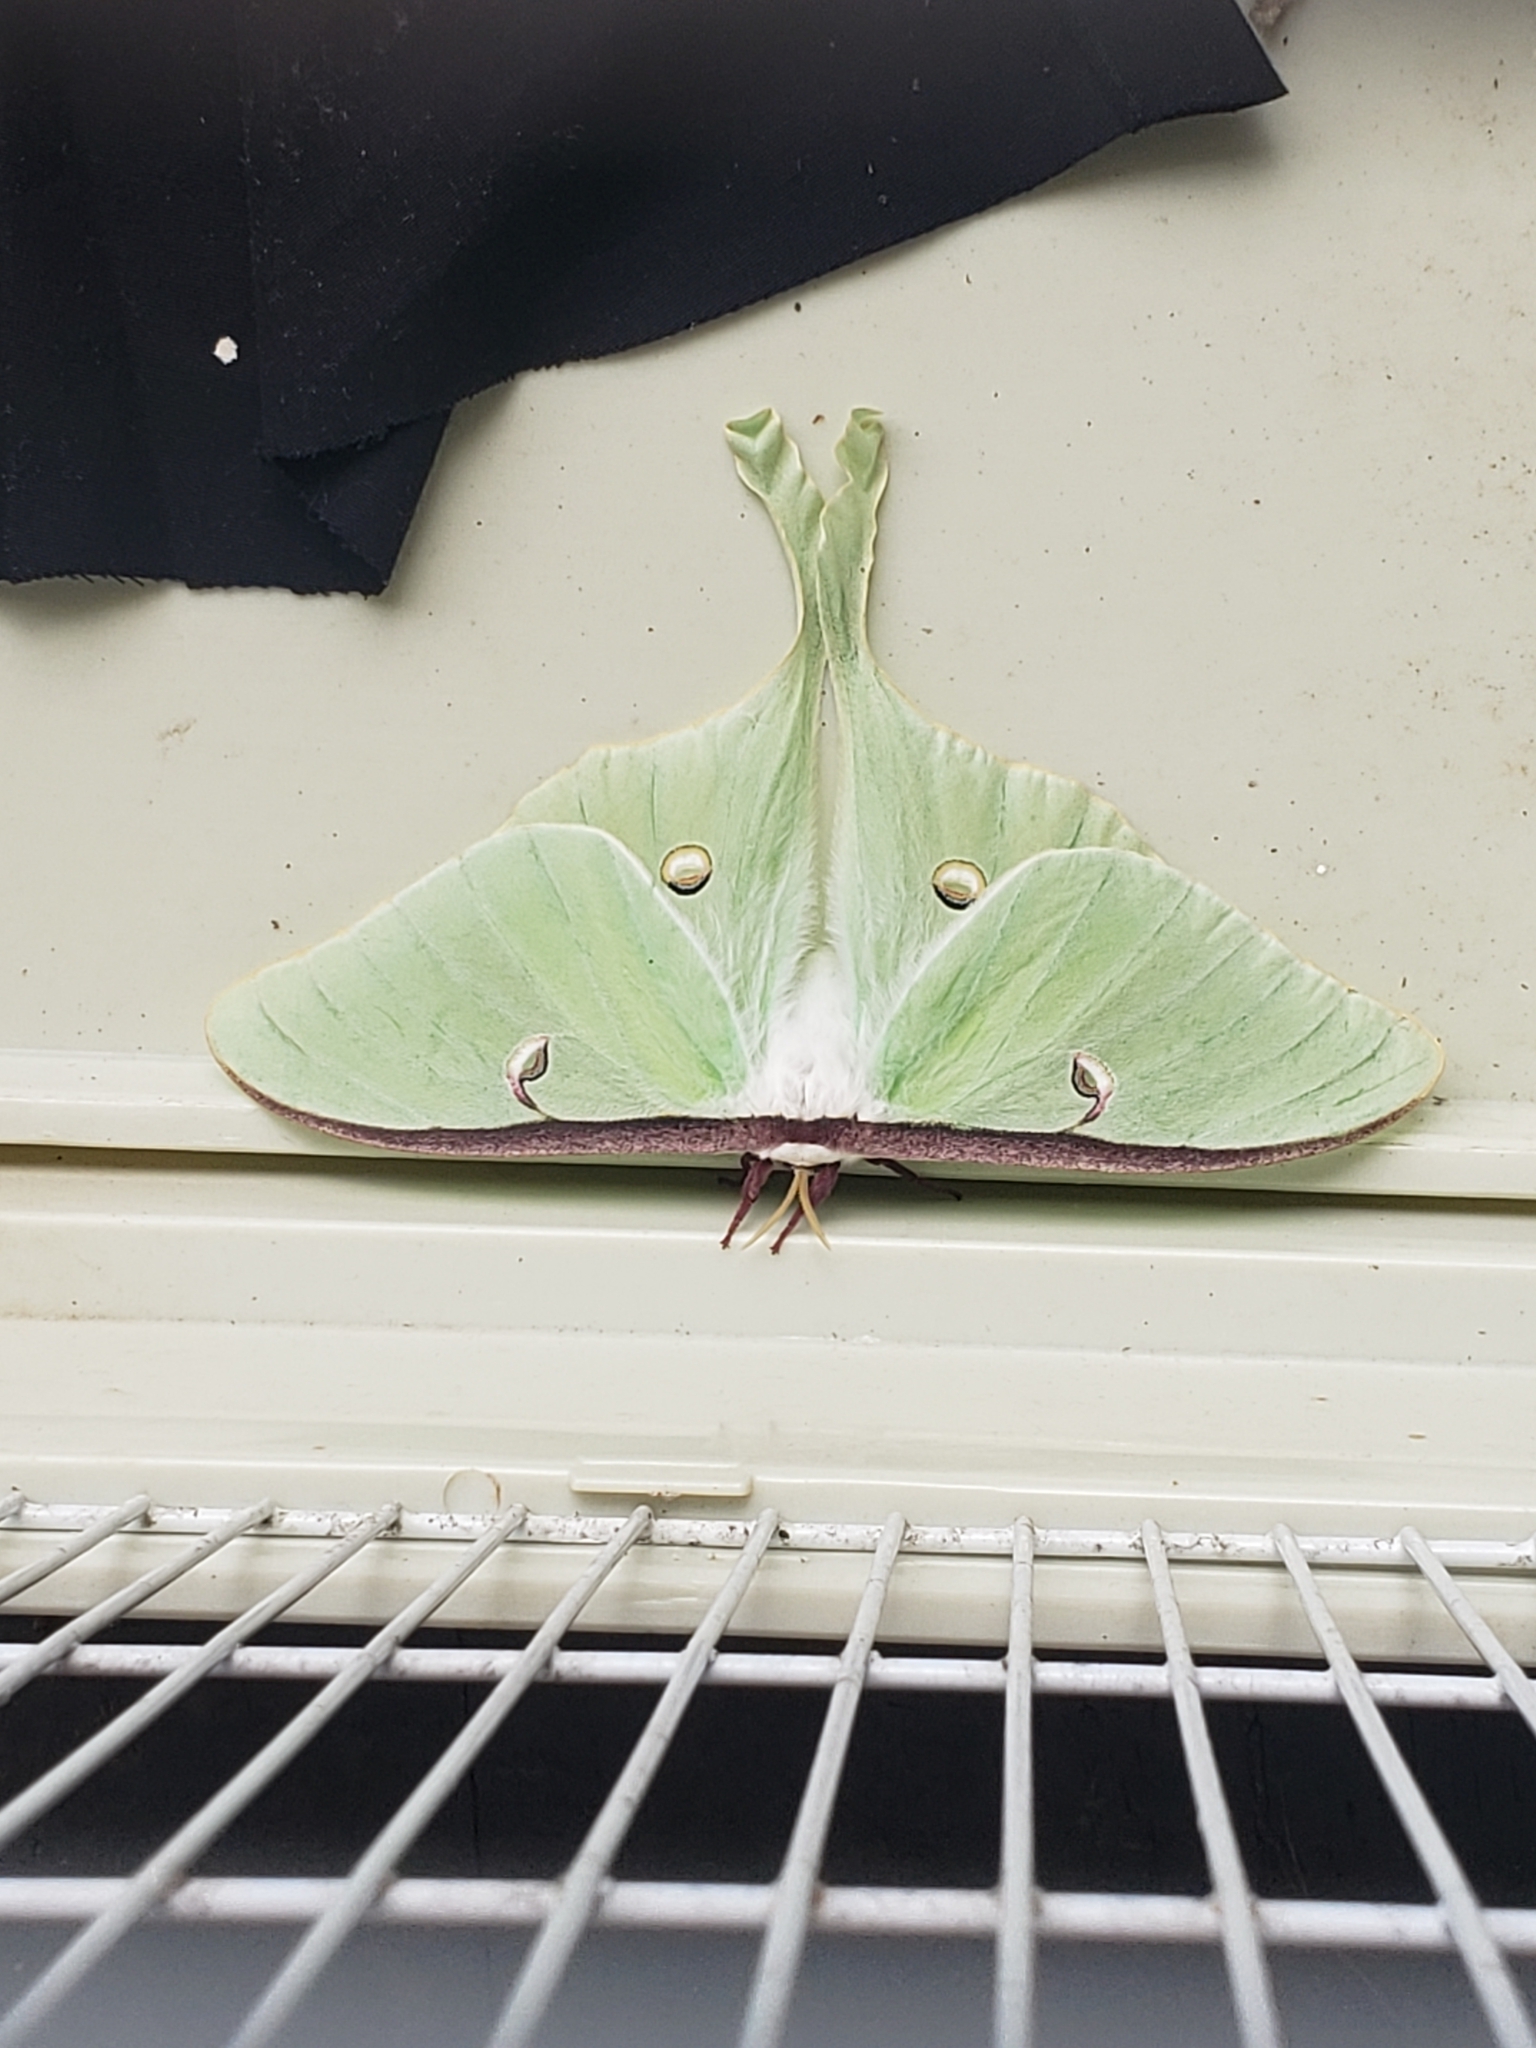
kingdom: Animalia
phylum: Arthropoda
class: Insecta
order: Lepidoptera
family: Saturniidae
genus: Actias
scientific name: Actias luna
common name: Luna moth
